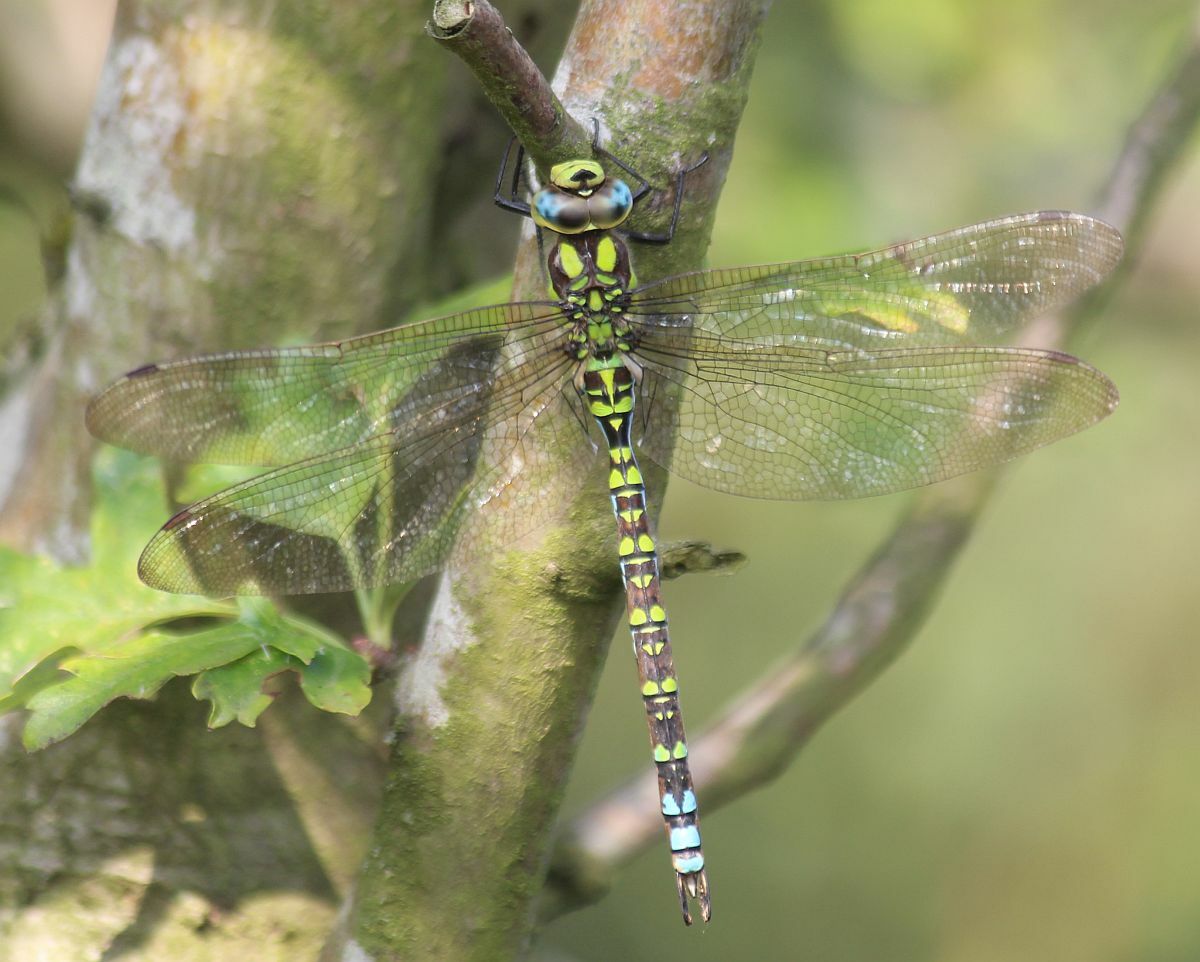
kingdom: Animalia
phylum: Arthropoda
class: Insecta
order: Odonata
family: Aeshnidae
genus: Aeshna
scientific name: Aeshna cyanea
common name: Southern hawker
